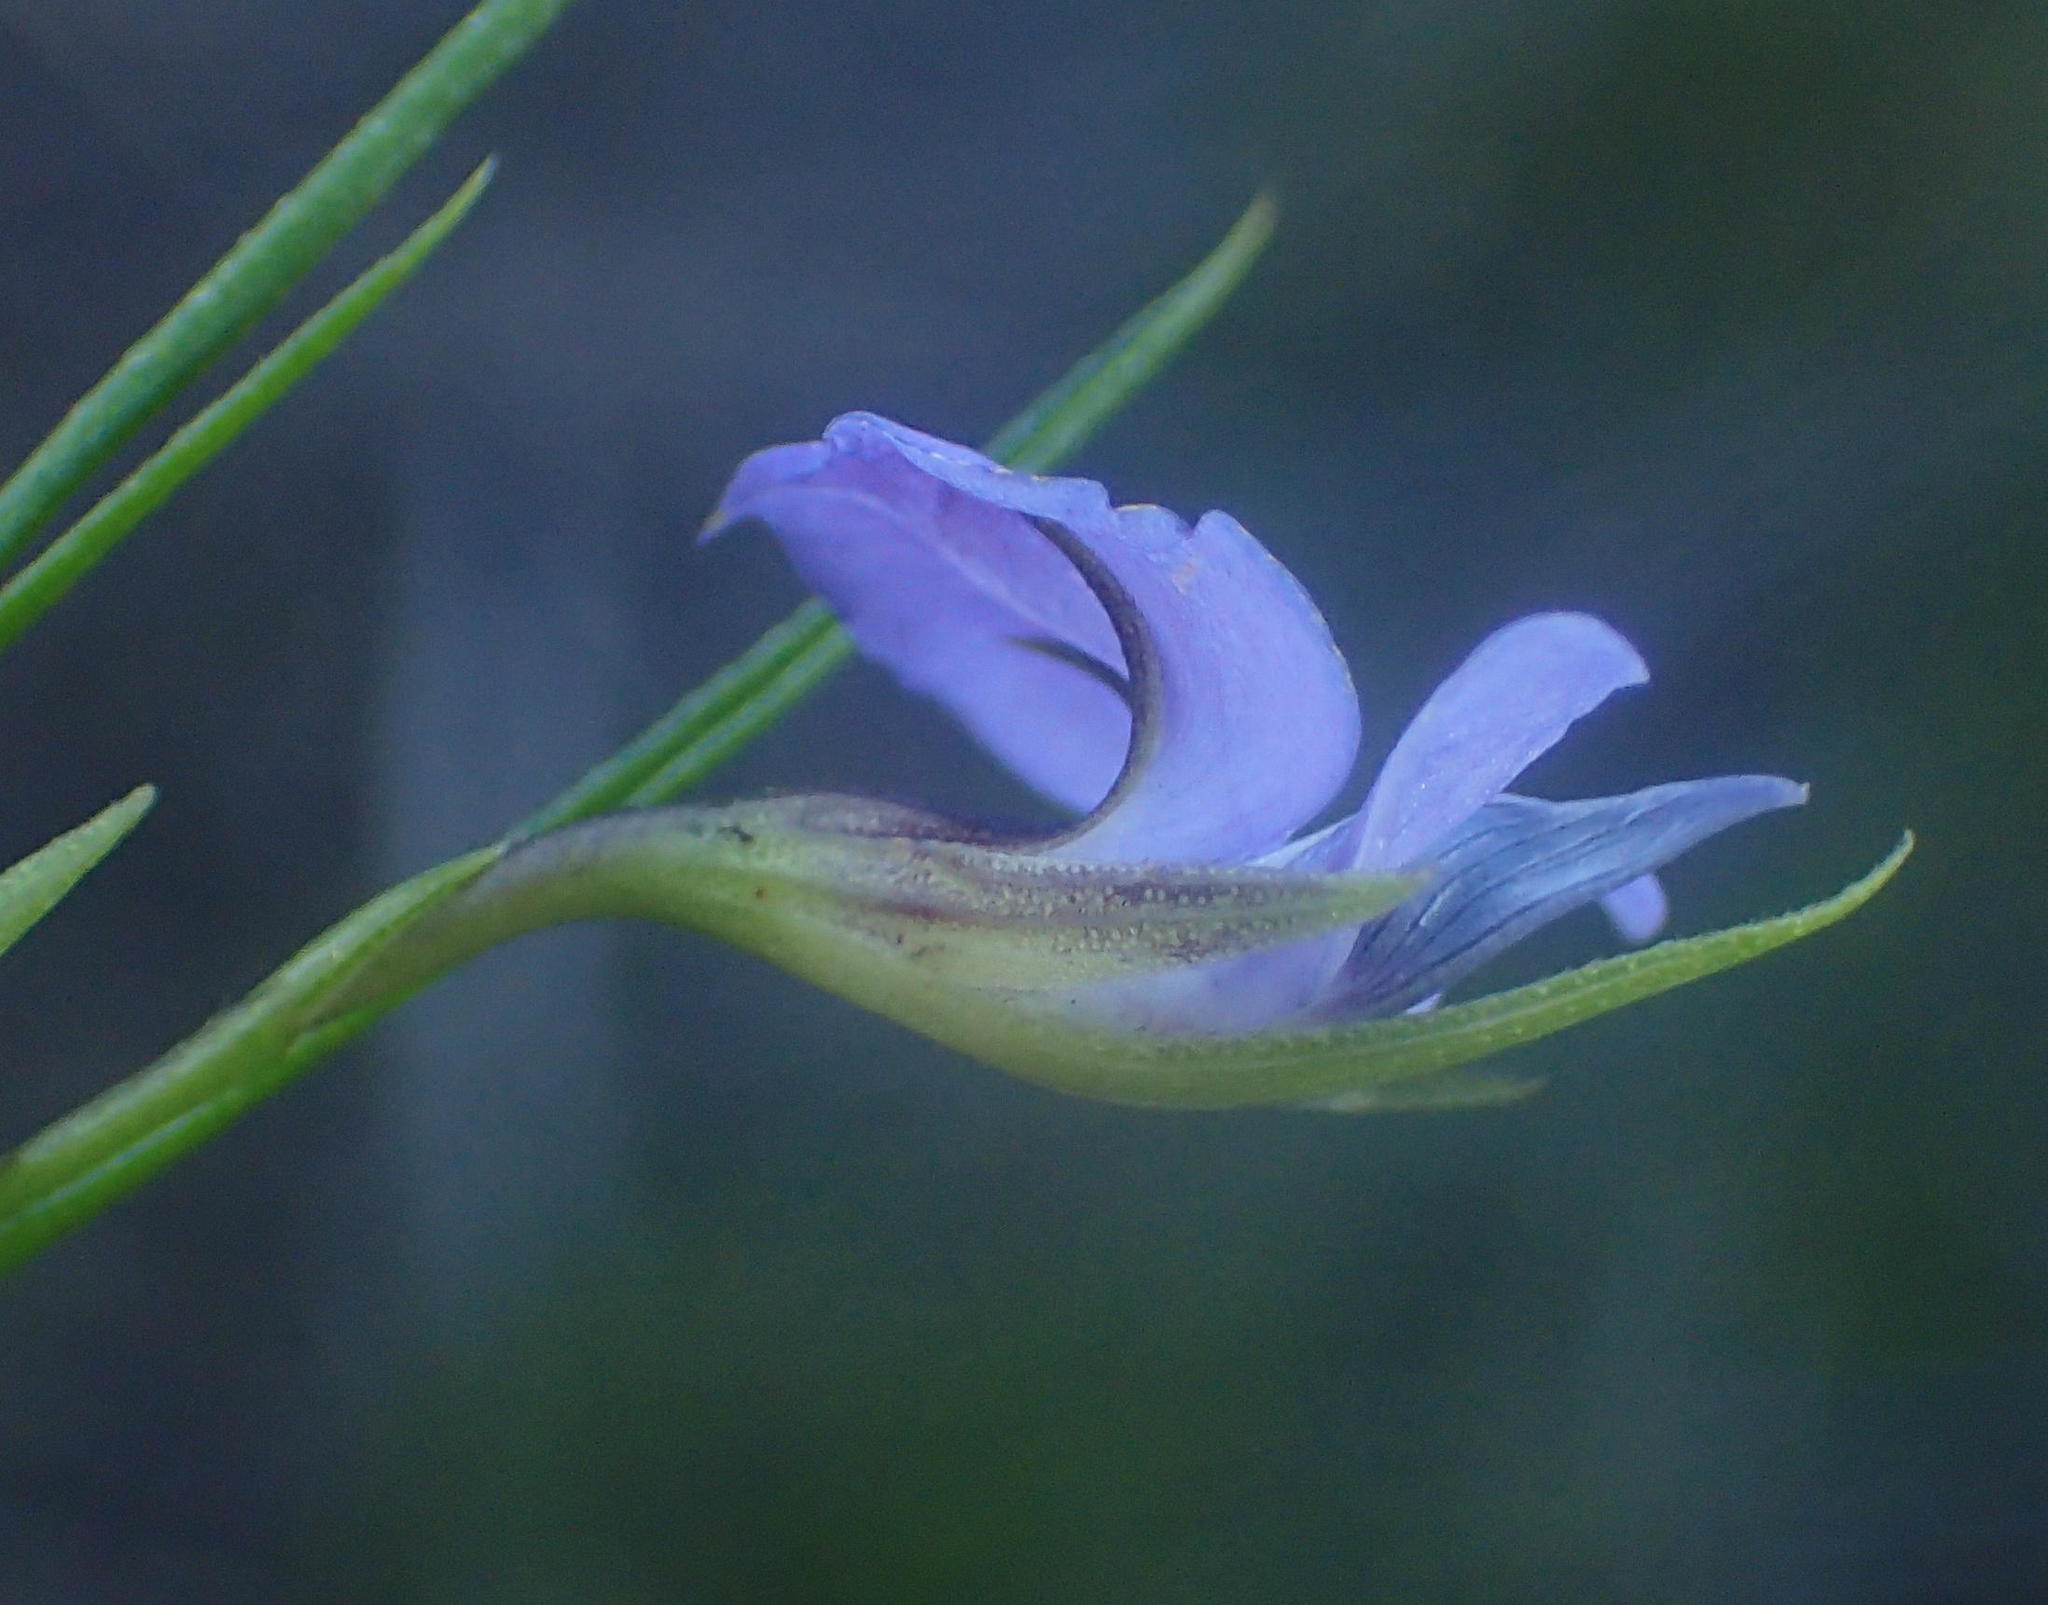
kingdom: Plantae
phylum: Tracheophyta
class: Magnoliopsida
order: Fabales
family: Fabaceae
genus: Psoralea
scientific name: Psoralea trullata
